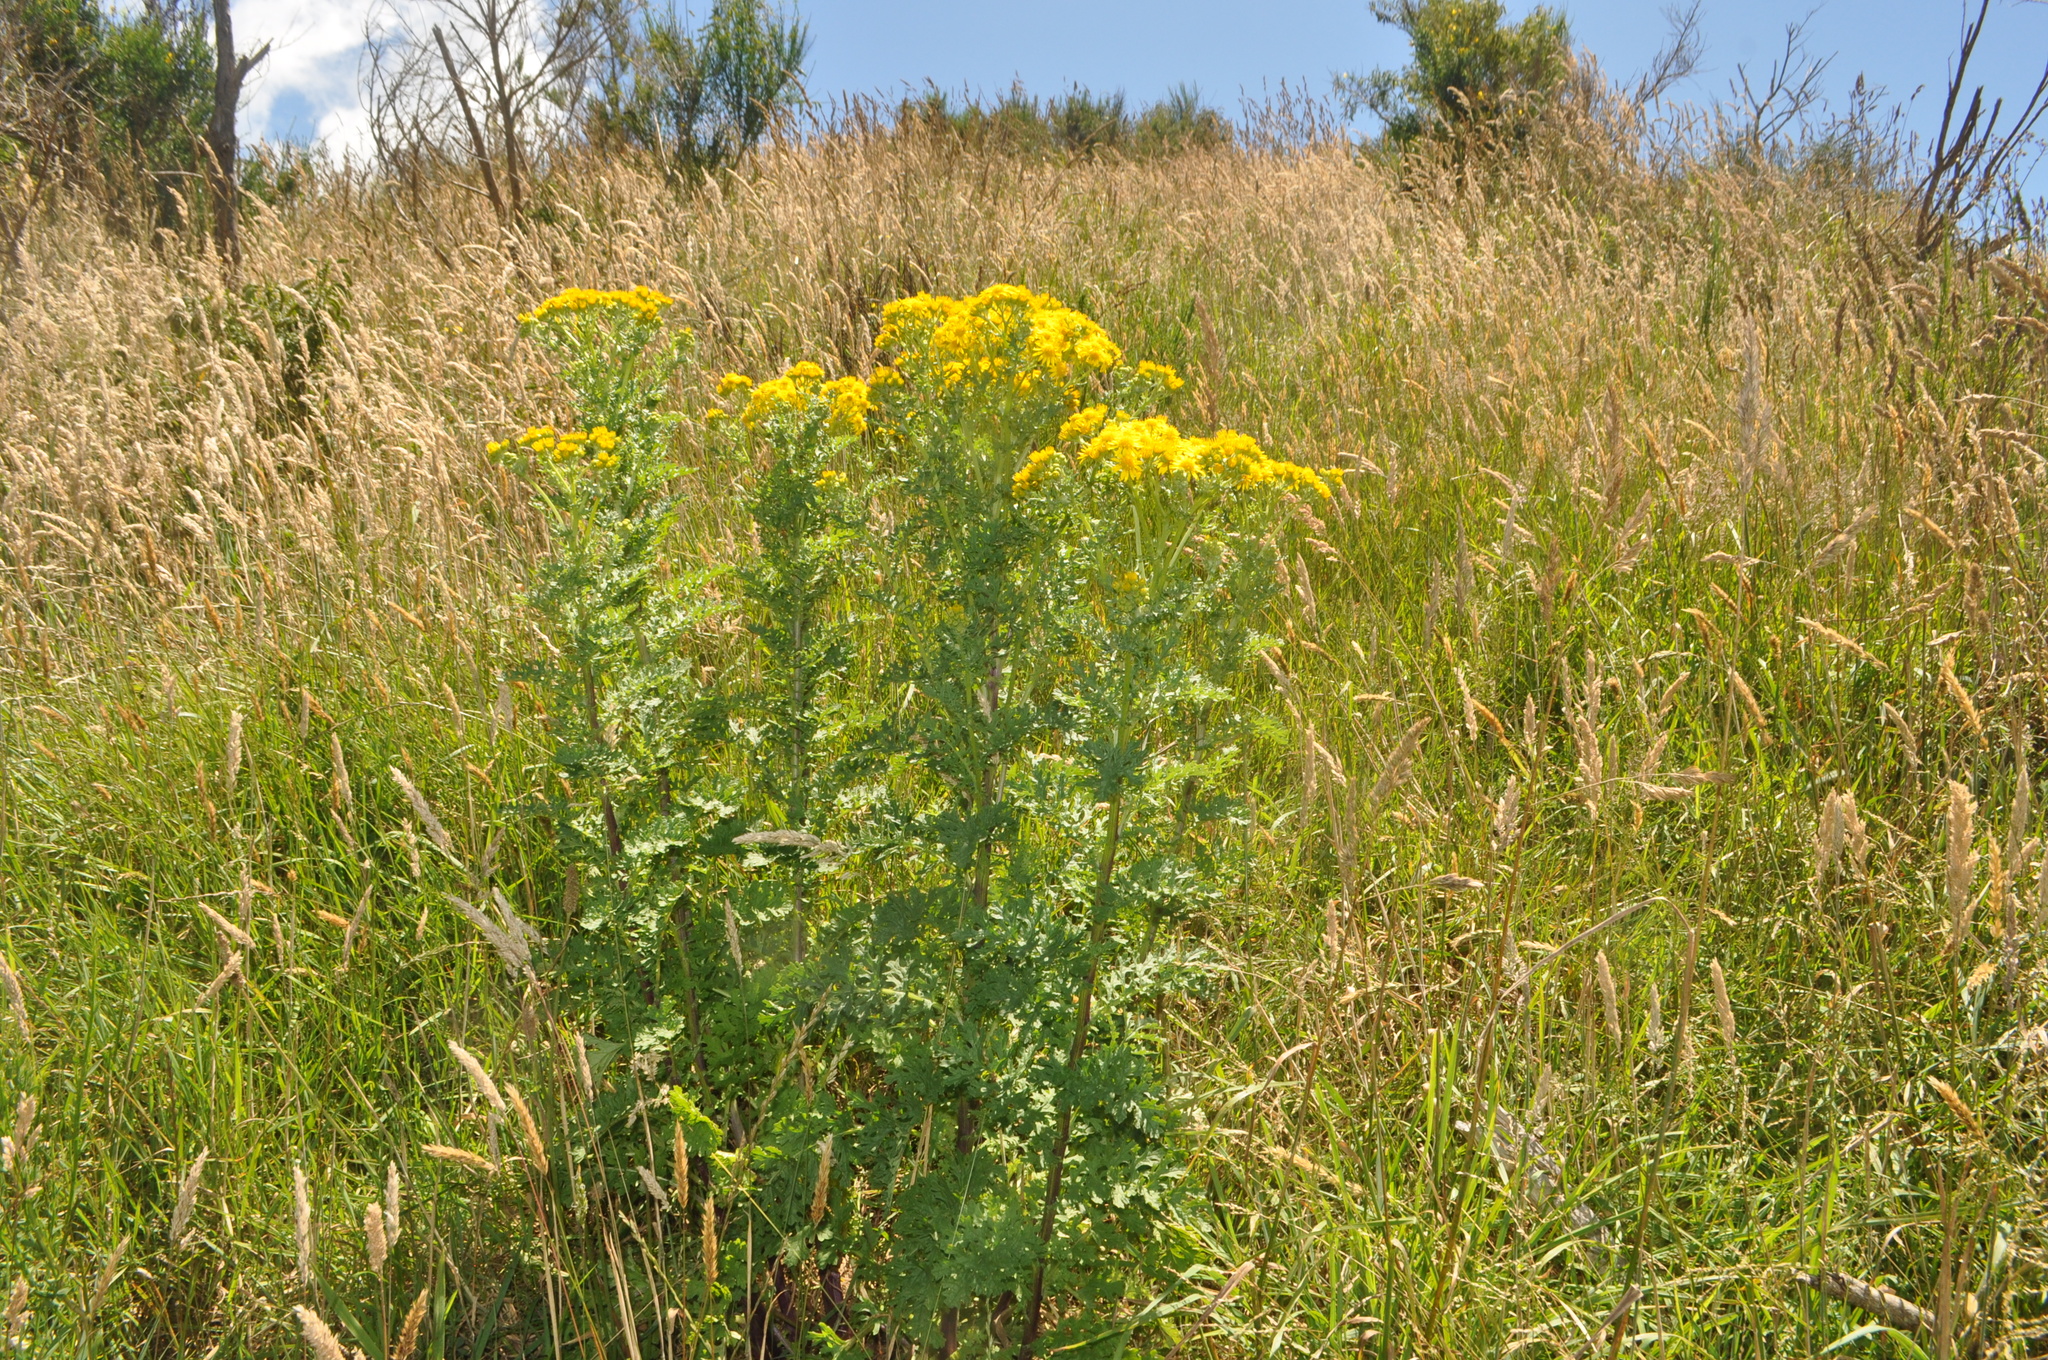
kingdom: Plantae
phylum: Tracheophyta
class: Magnoliopsida
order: Asterales
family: Asteraceae
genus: Jacobaea
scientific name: Jacobaea vulgaris
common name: Stinking willie
